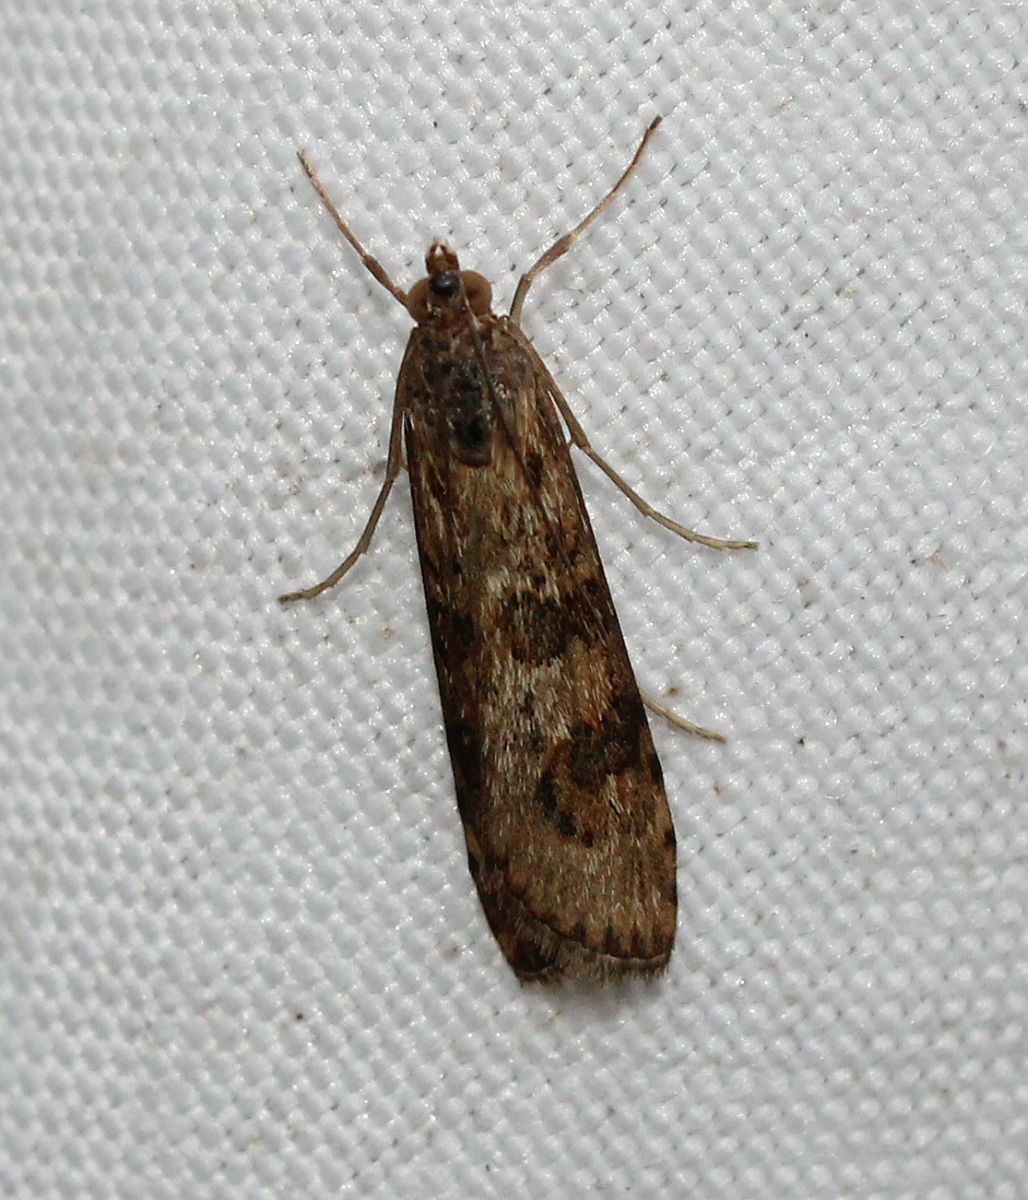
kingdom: Animalia
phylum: Arthropoda
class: Insecta
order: Lepidoptera
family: Crambidae
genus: Nomophila
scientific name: Nomophila noctuella
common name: Rush veneer
